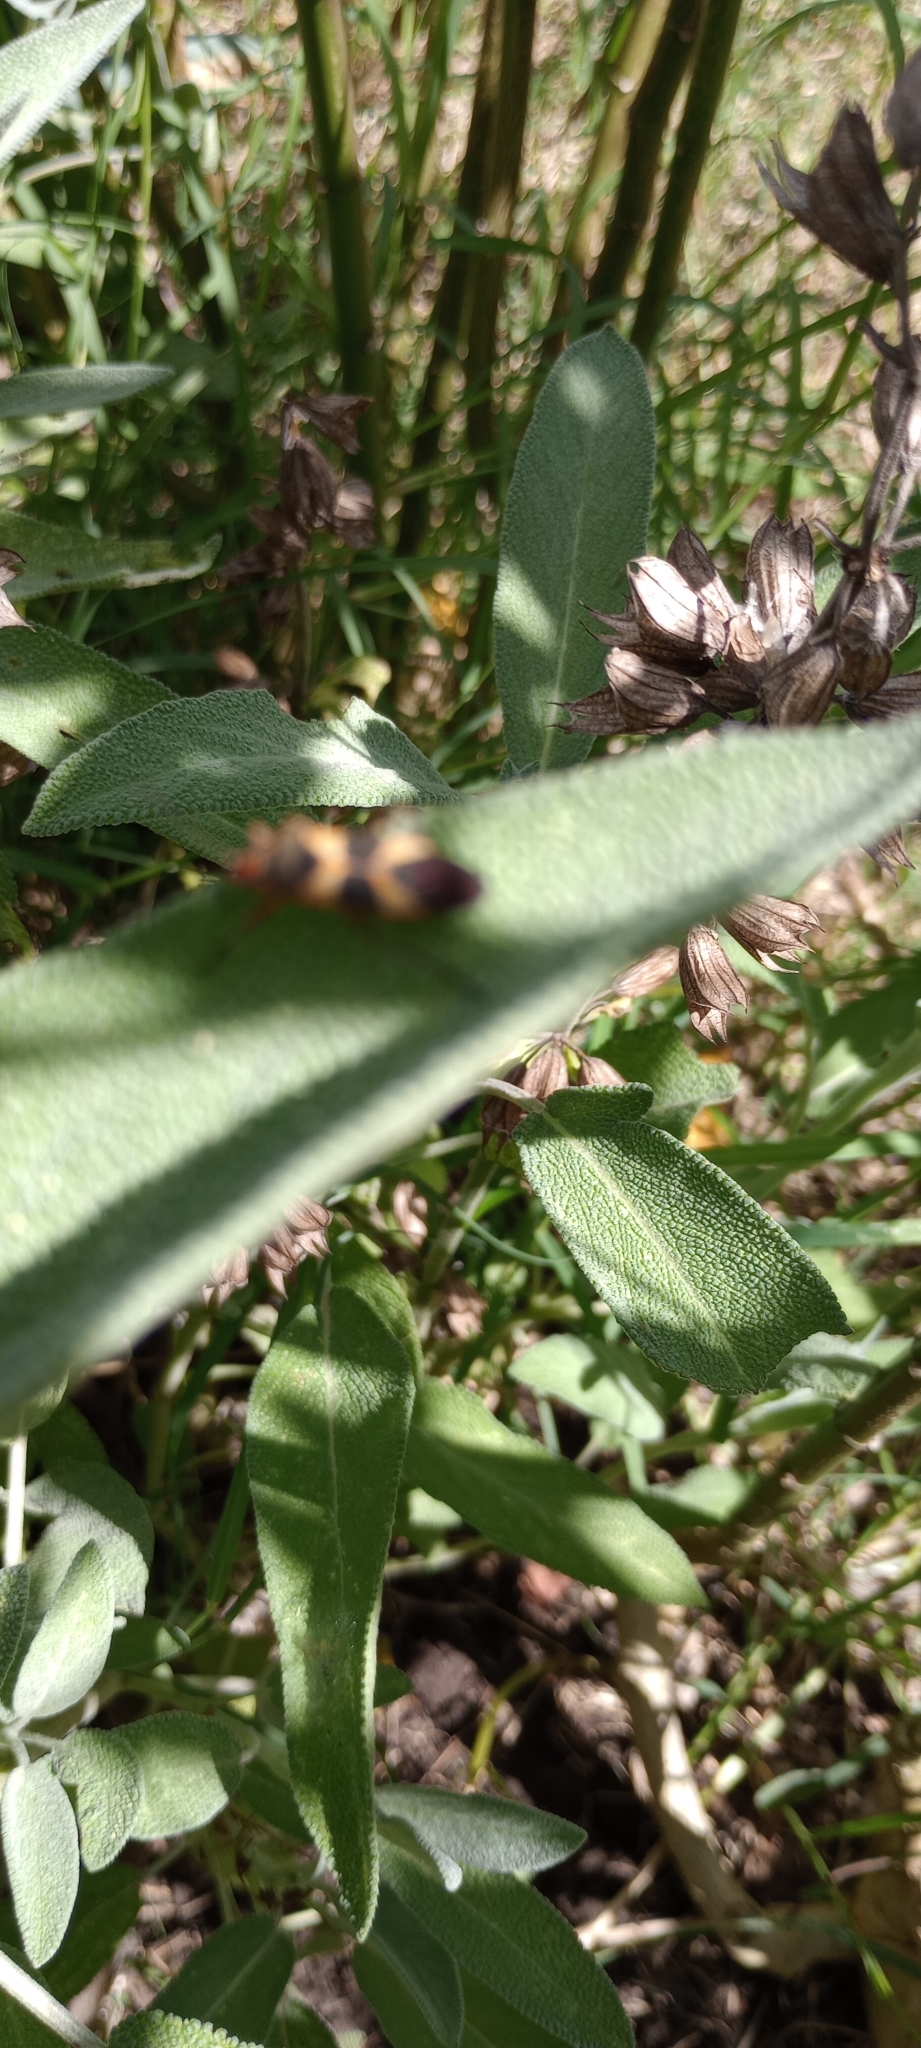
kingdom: Animalia
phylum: Arthropoda
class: Insecta
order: Hemiptera
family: Lygaeidae
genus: Oncopeltus
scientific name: Oncopeltus unifasciatellus
